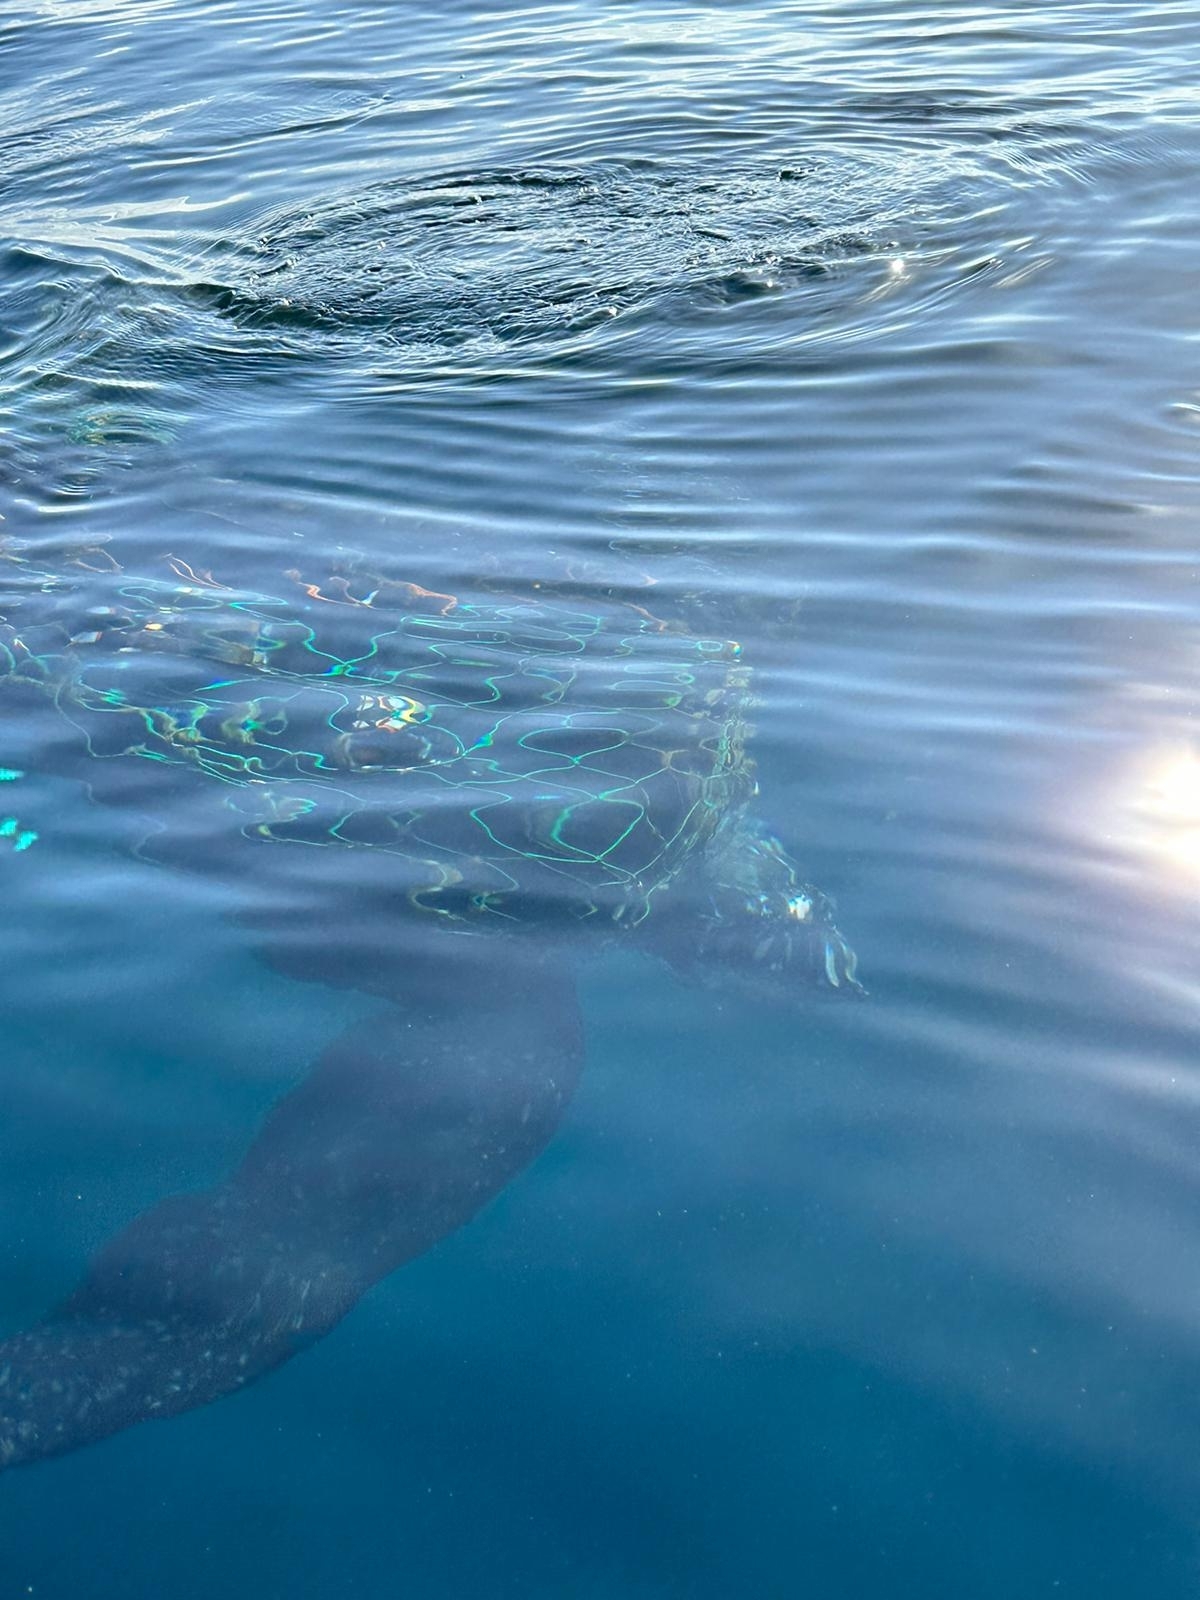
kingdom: Animalia
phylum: Chordata
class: Testudines
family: Dermochelyidae
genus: Dermochelys
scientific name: Dermochelys coriacea
